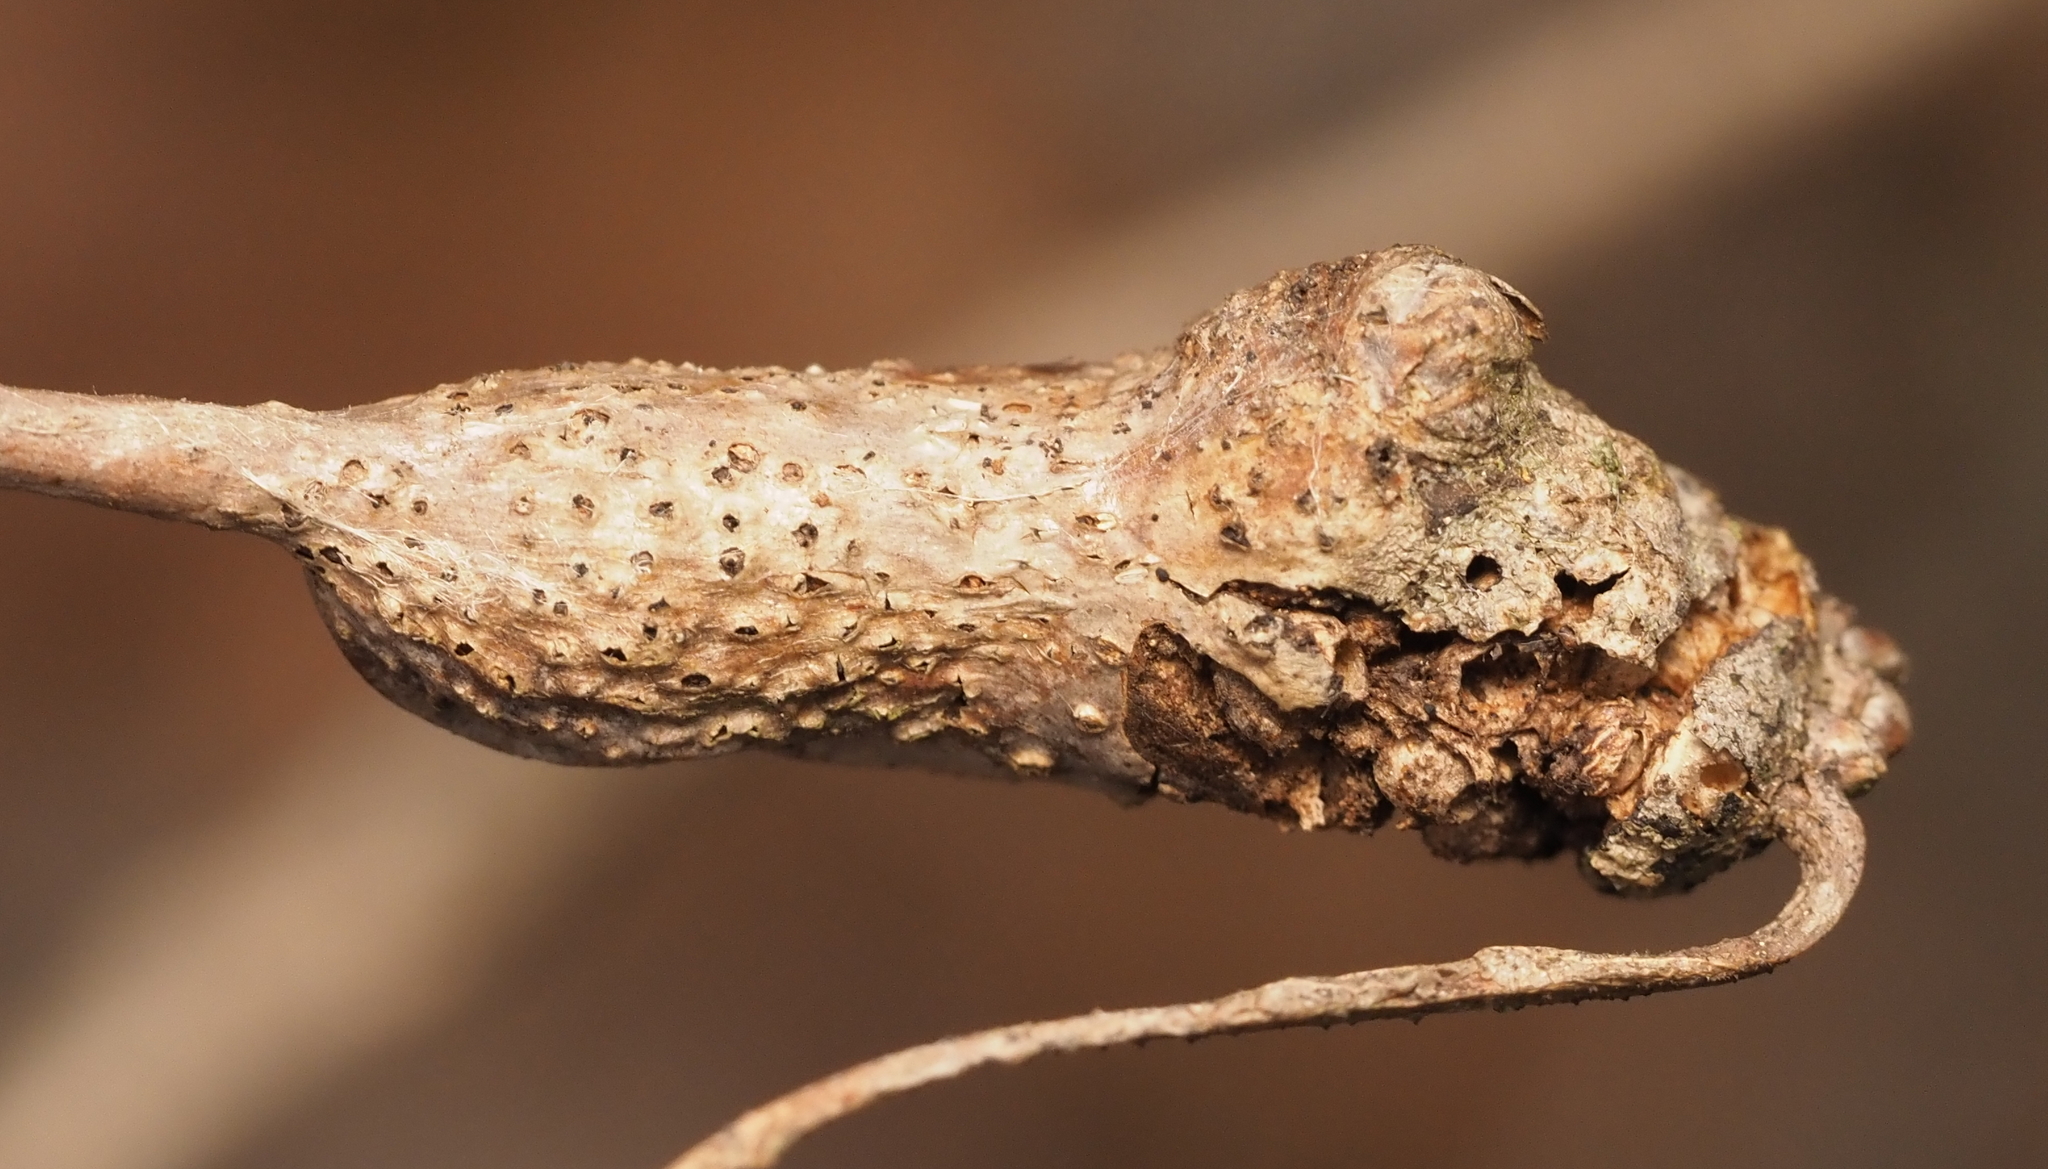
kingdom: Animalia
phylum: Arthropoda
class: Insecta
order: Hymenoptera
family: Cynipidae
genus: Neuroterus
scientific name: Neuroterus quercusbaccarum
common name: Common spangle gall
